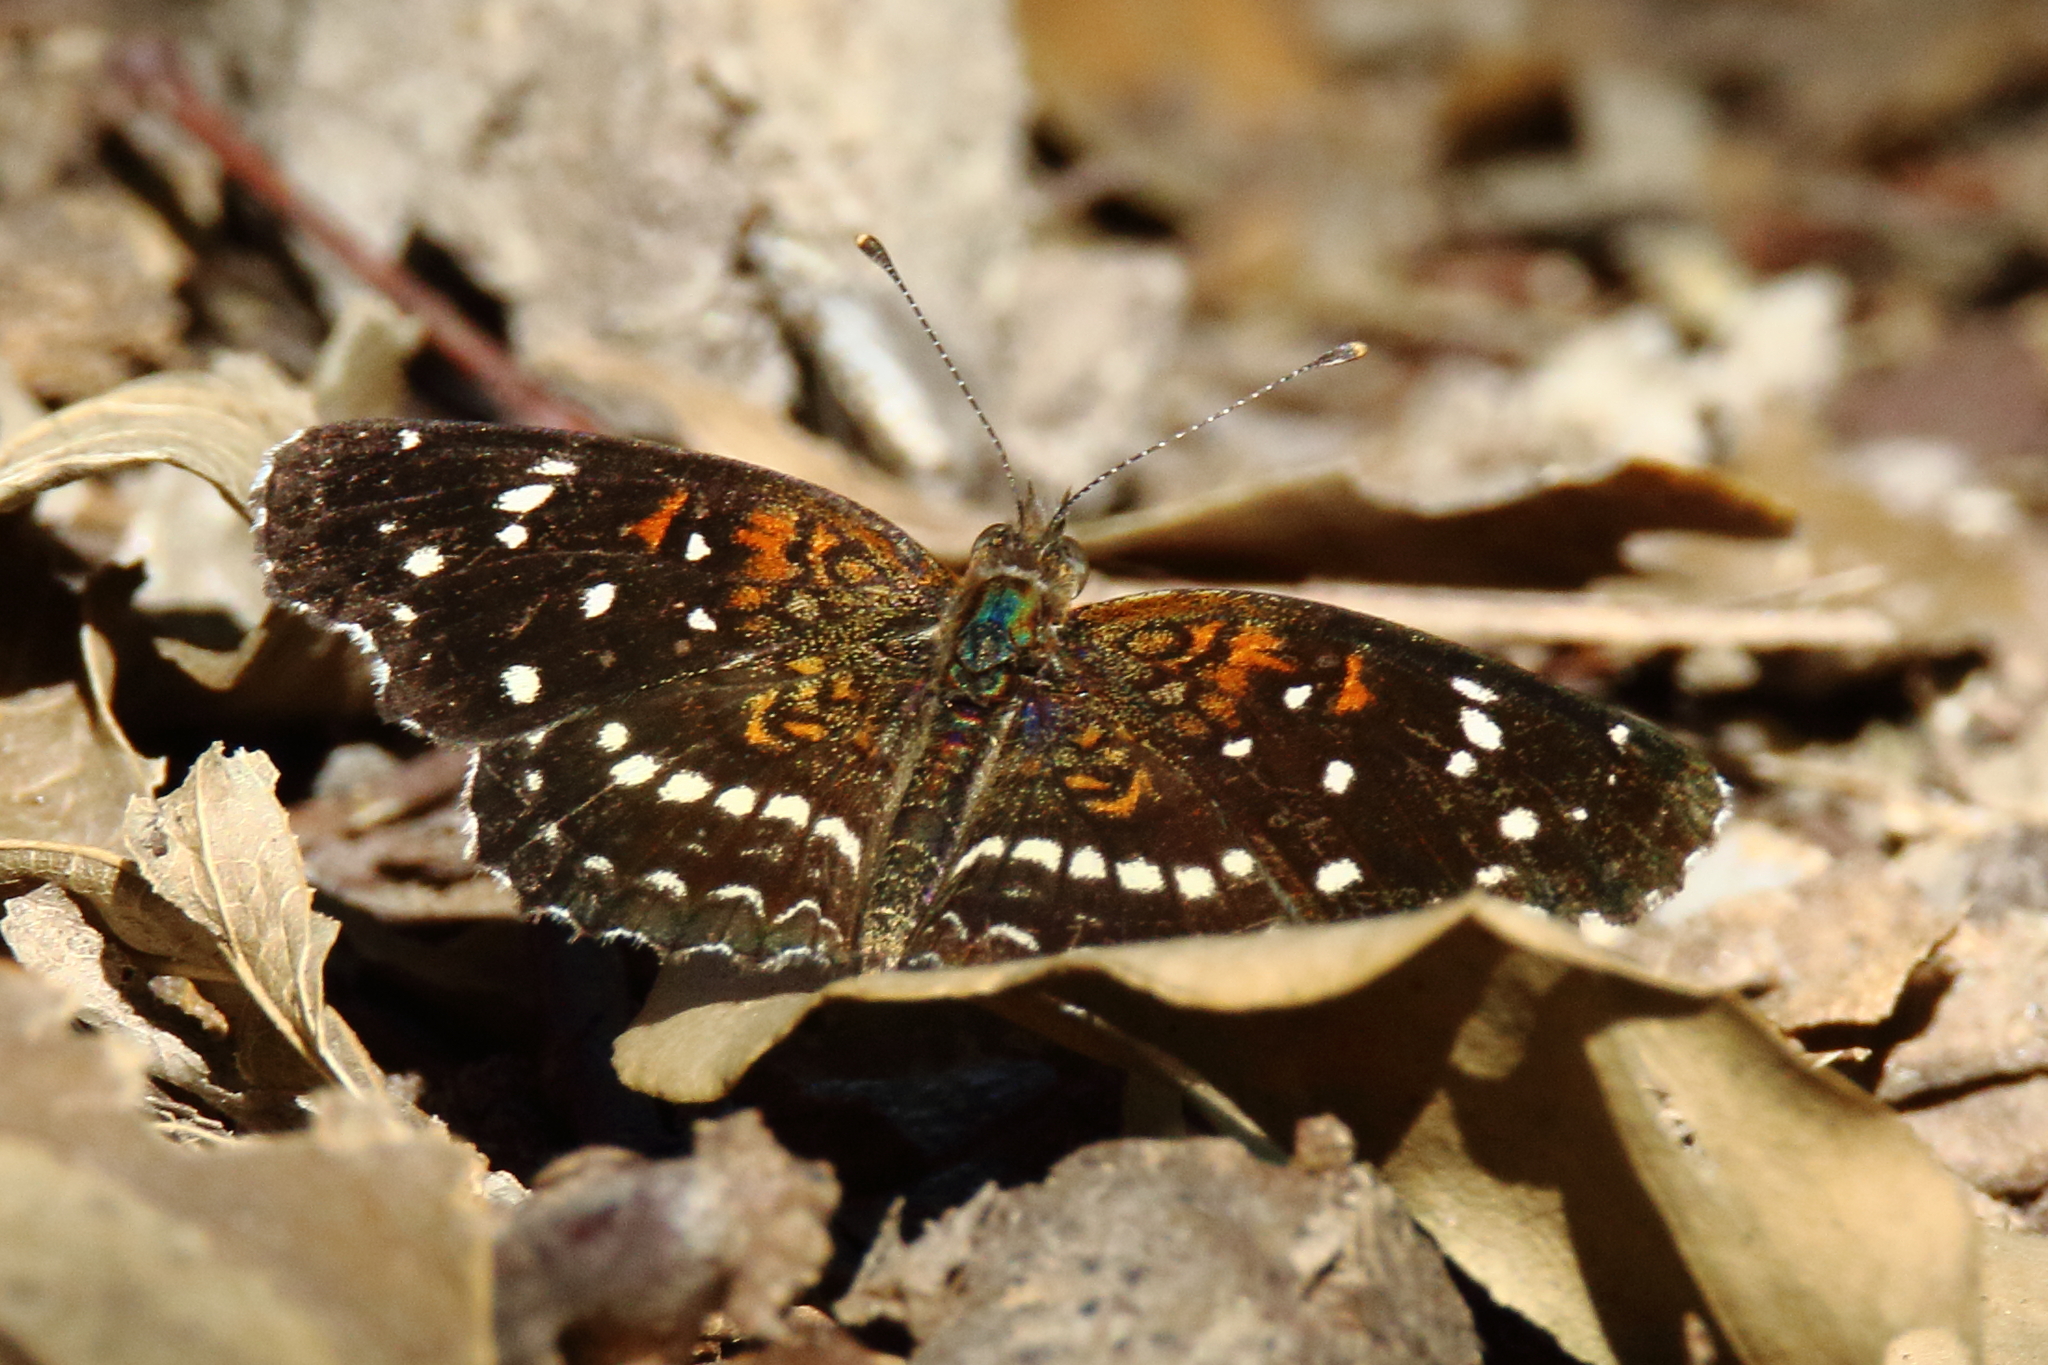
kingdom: Animalia
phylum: Arthropoda
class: Insecta
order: Lepidoptera
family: Nymphalidae
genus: Anthanassa
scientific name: Anthanassa texana
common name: Texan crescent
